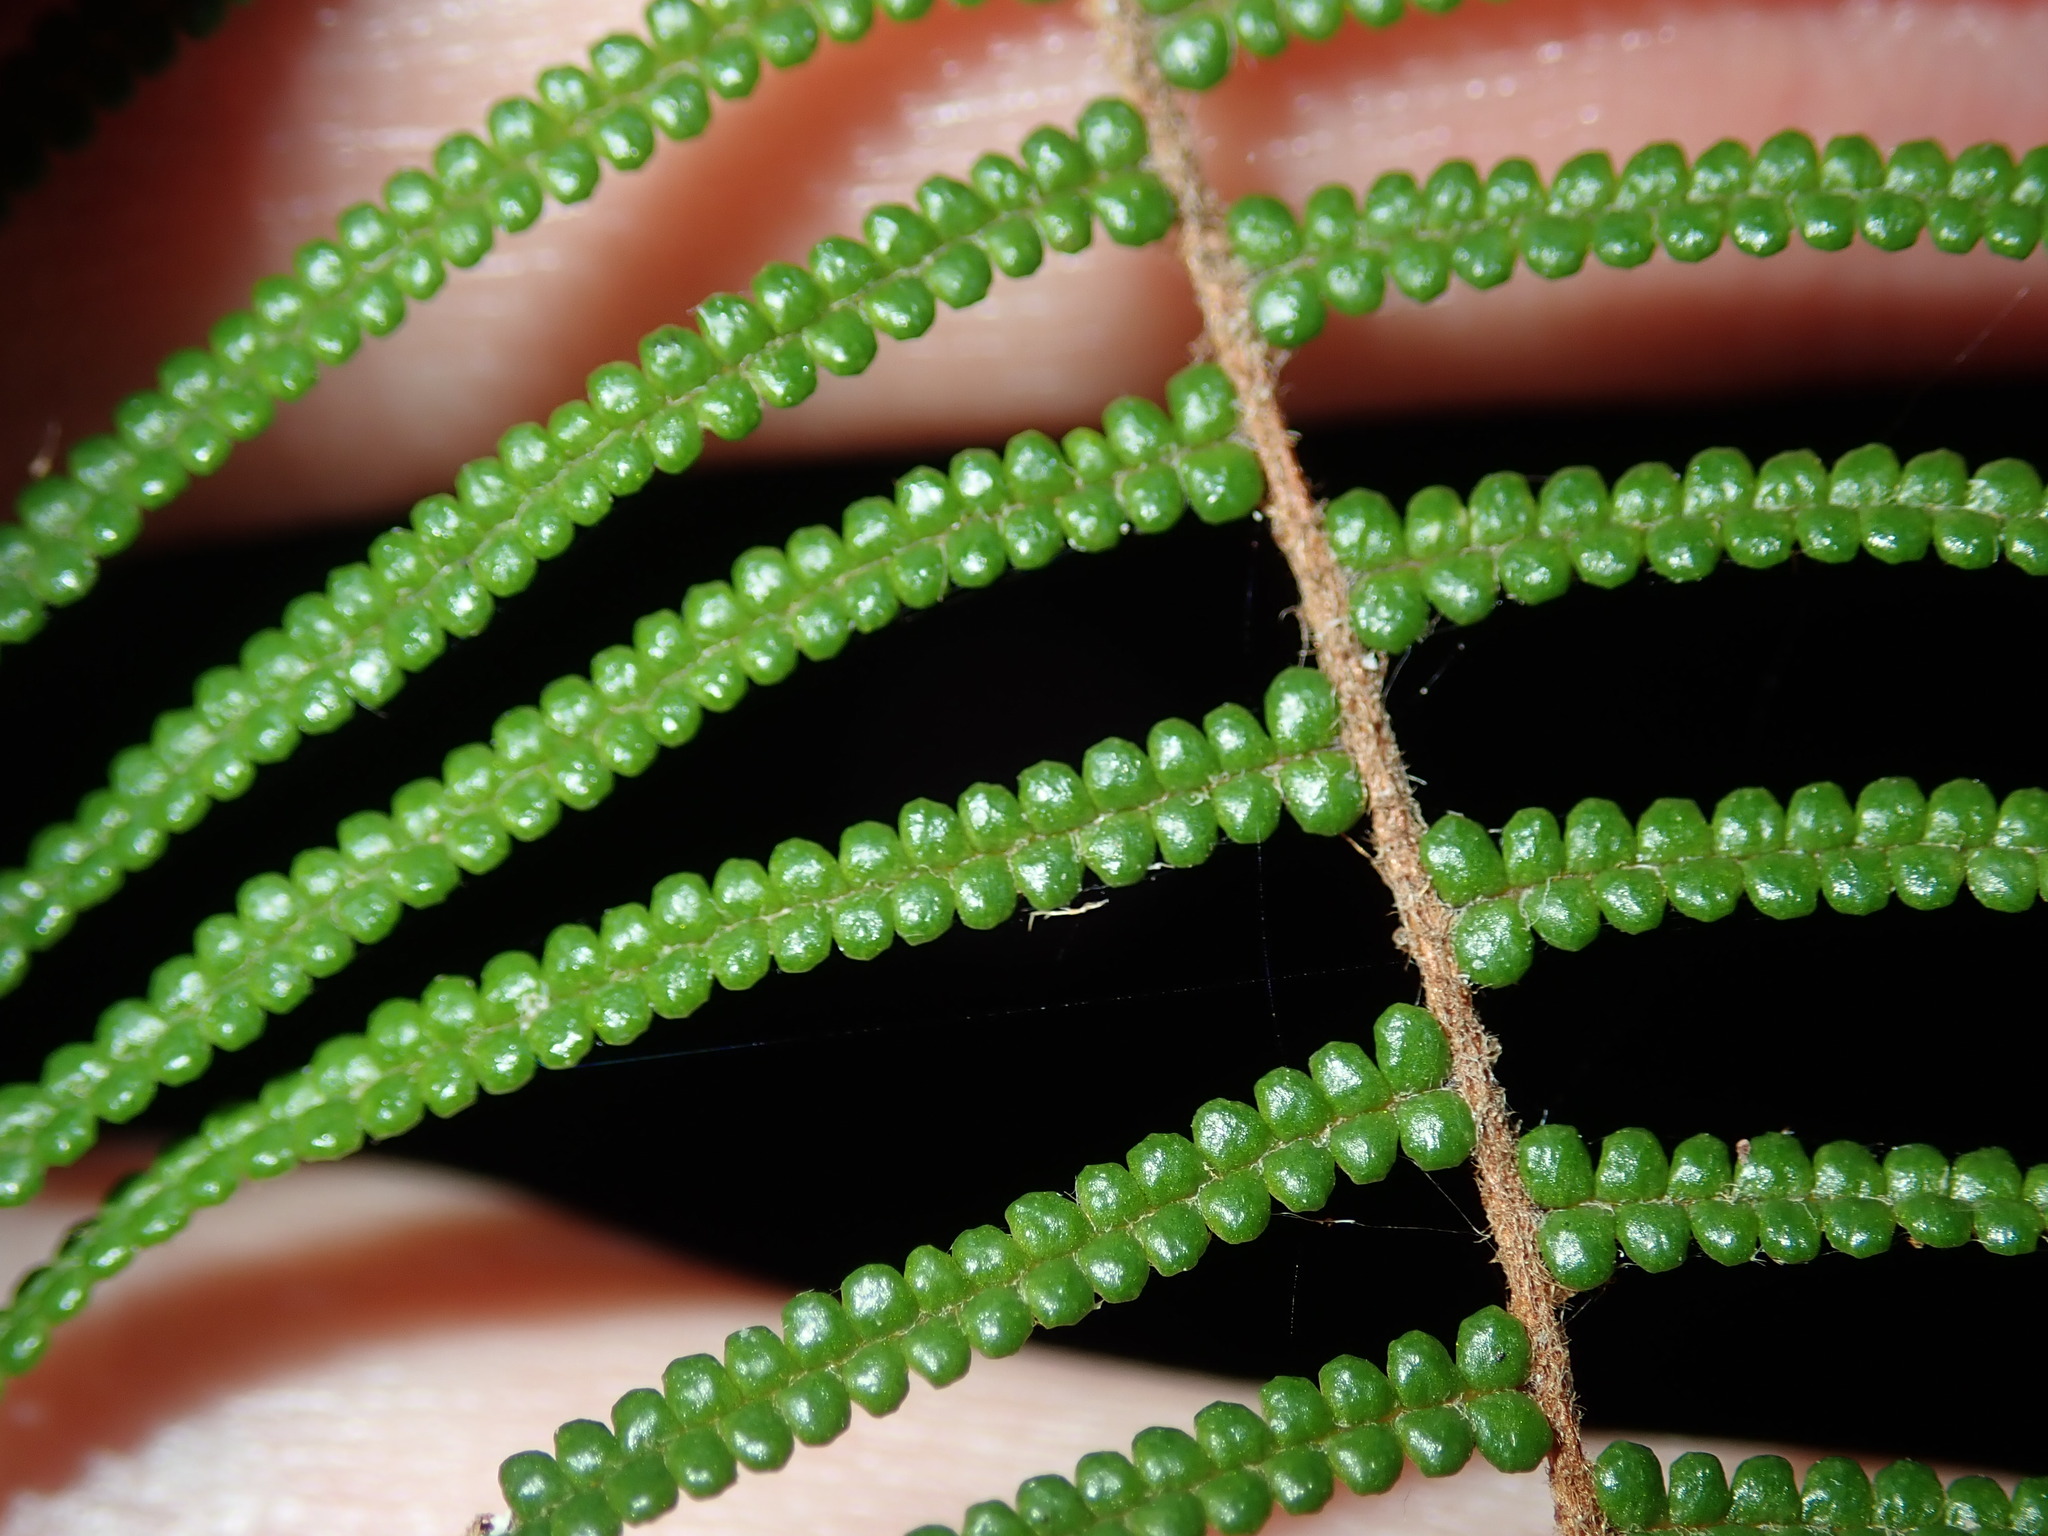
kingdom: Plantae
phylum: Tracheophyta
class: Polypodiopsida
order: Gleicheniales
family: Gleicheniaceae
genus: Gleichenia
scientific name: Gleichenia dicarpa
